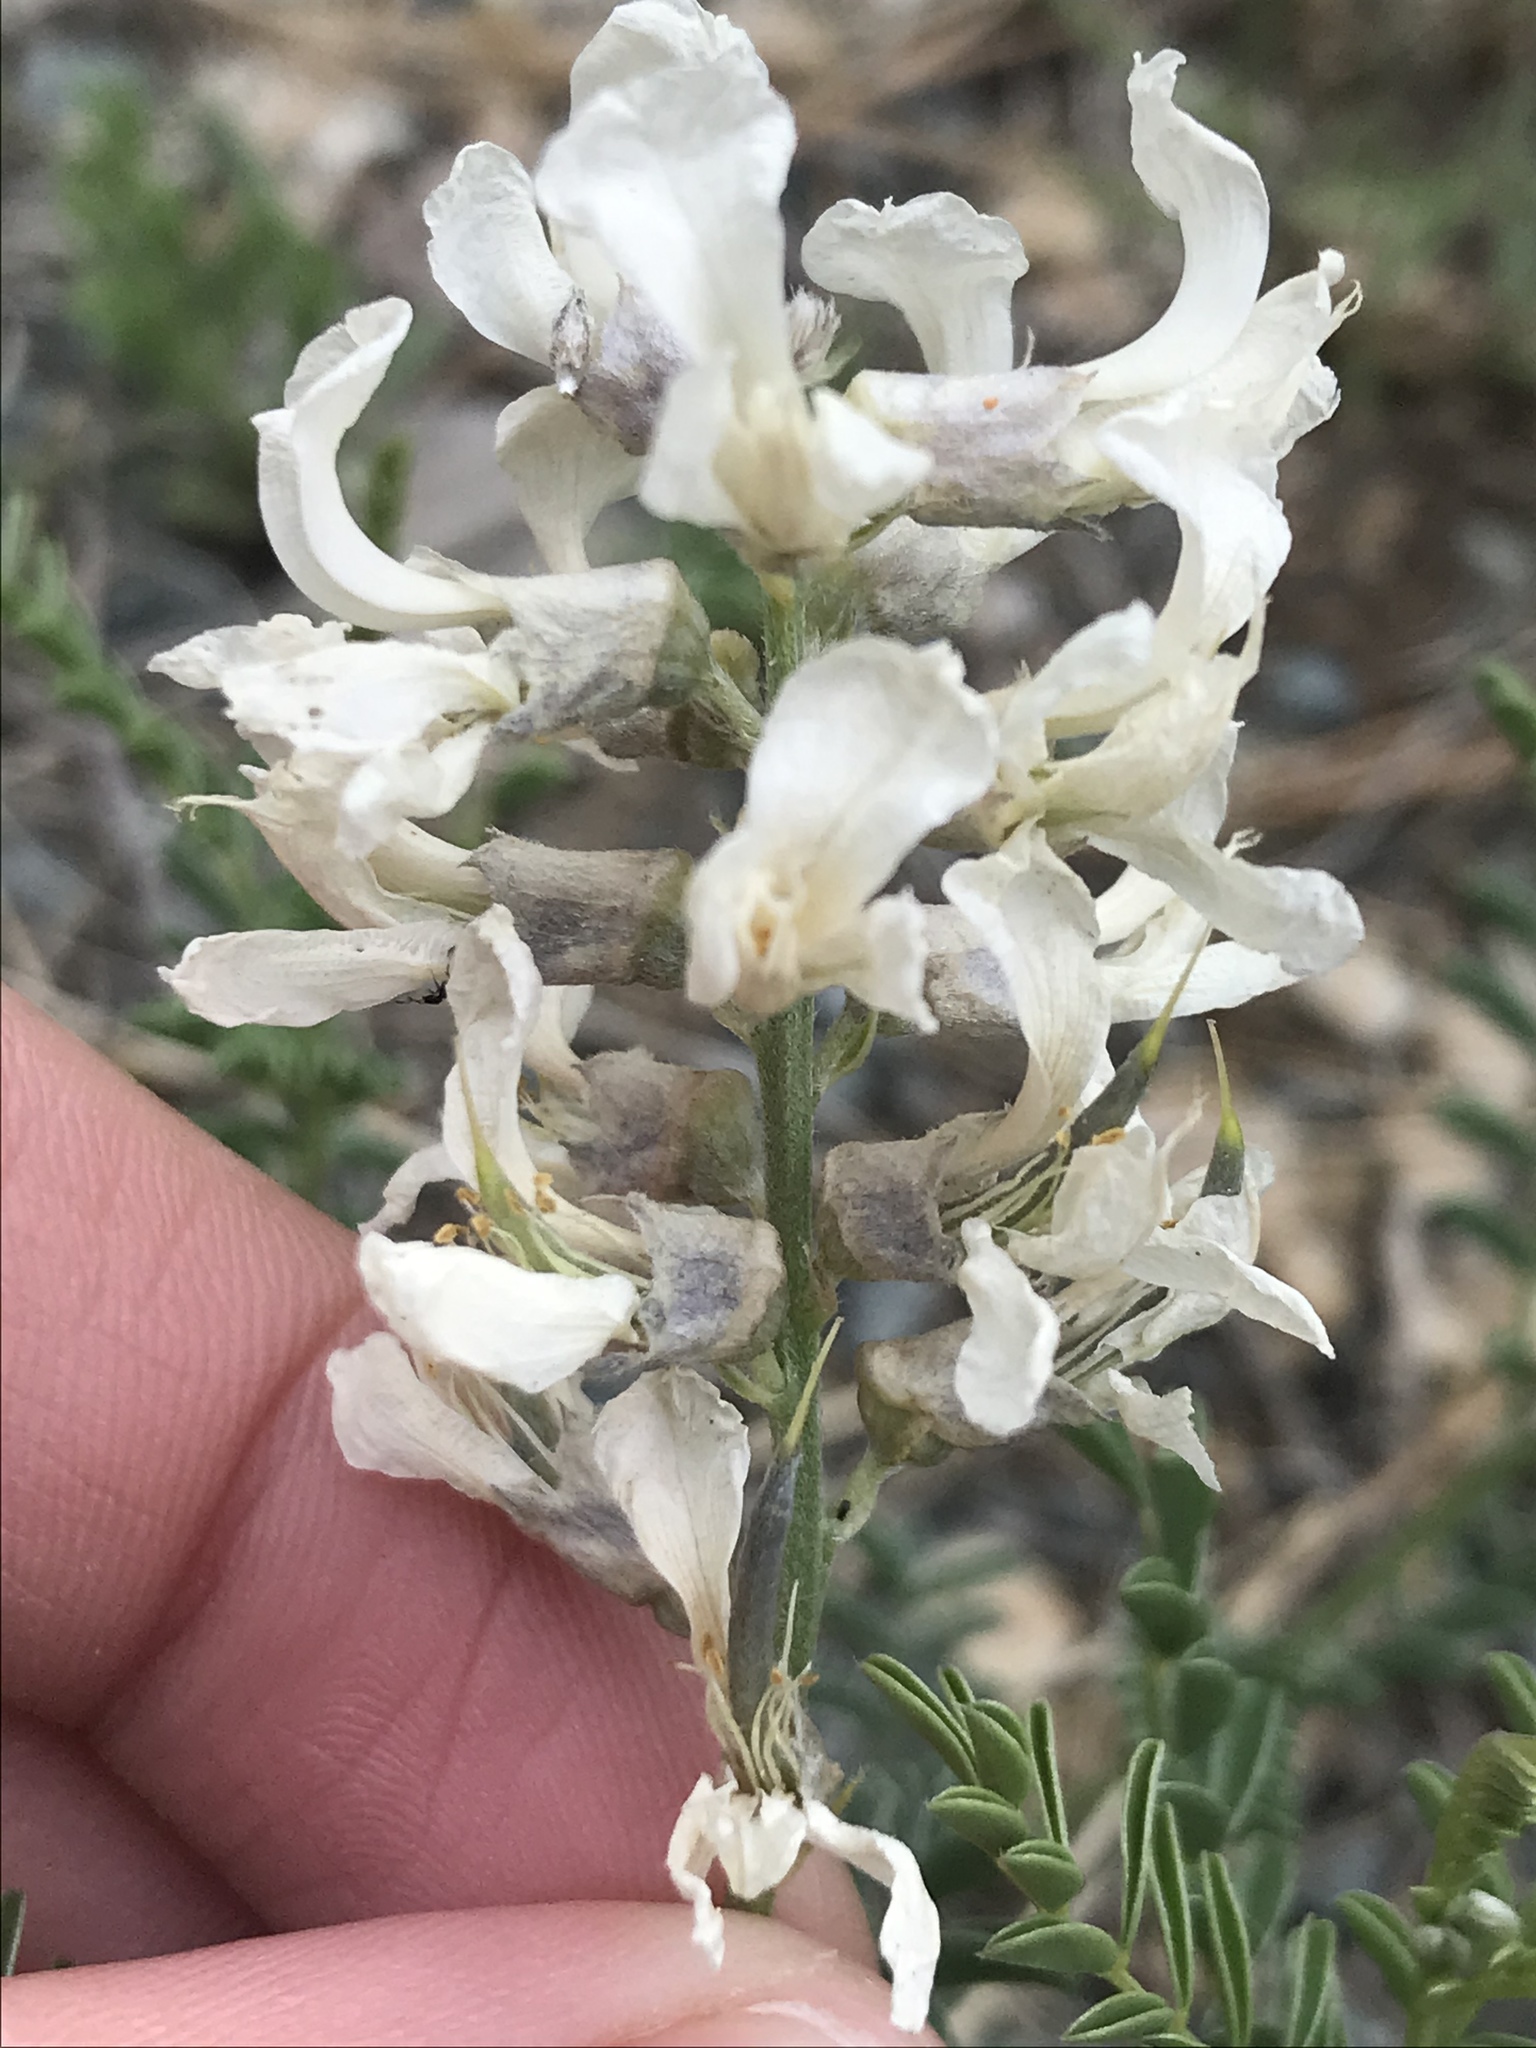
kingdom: Plantae
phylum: Tracheophyta
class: Magnoliopsida
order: Fabales
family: Fabaceae
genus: Sophora
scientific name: Sophora nuttalliana
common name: Silky sophora
